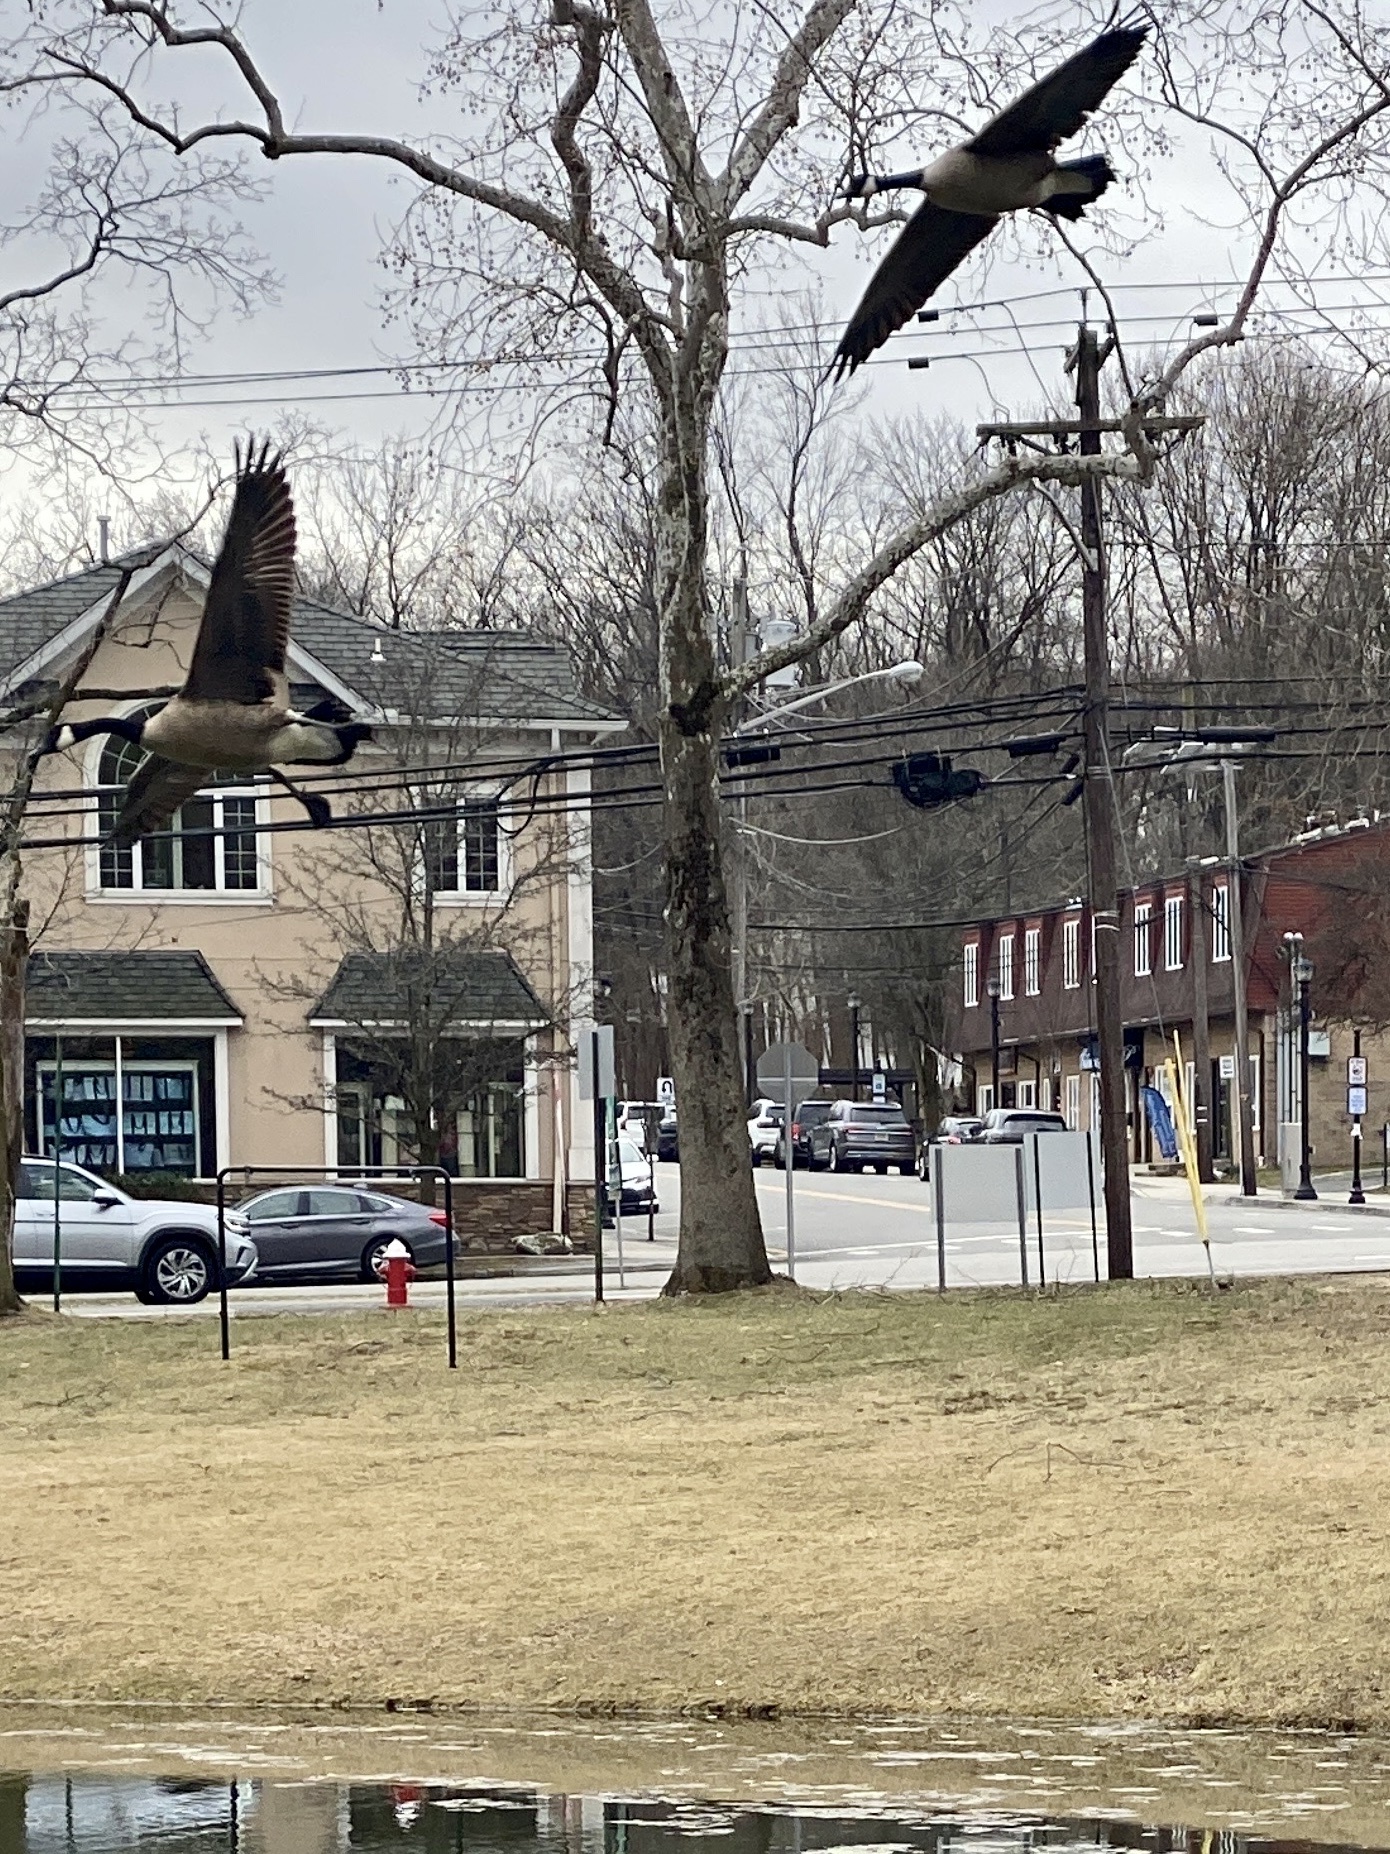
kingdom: Animalia
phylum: Chordata
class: Aves
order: Anseriformes
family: Anatidae
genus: Branta
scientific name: Branta canadensis
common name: Canada goose
